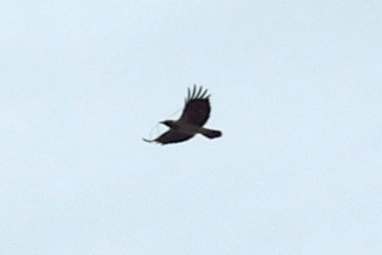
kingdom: Animalia
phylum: Chordata
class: Aves
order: Passeriformes
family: Corvidae
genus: Corvus
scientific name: Corvus cornix
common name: Hooded crow
